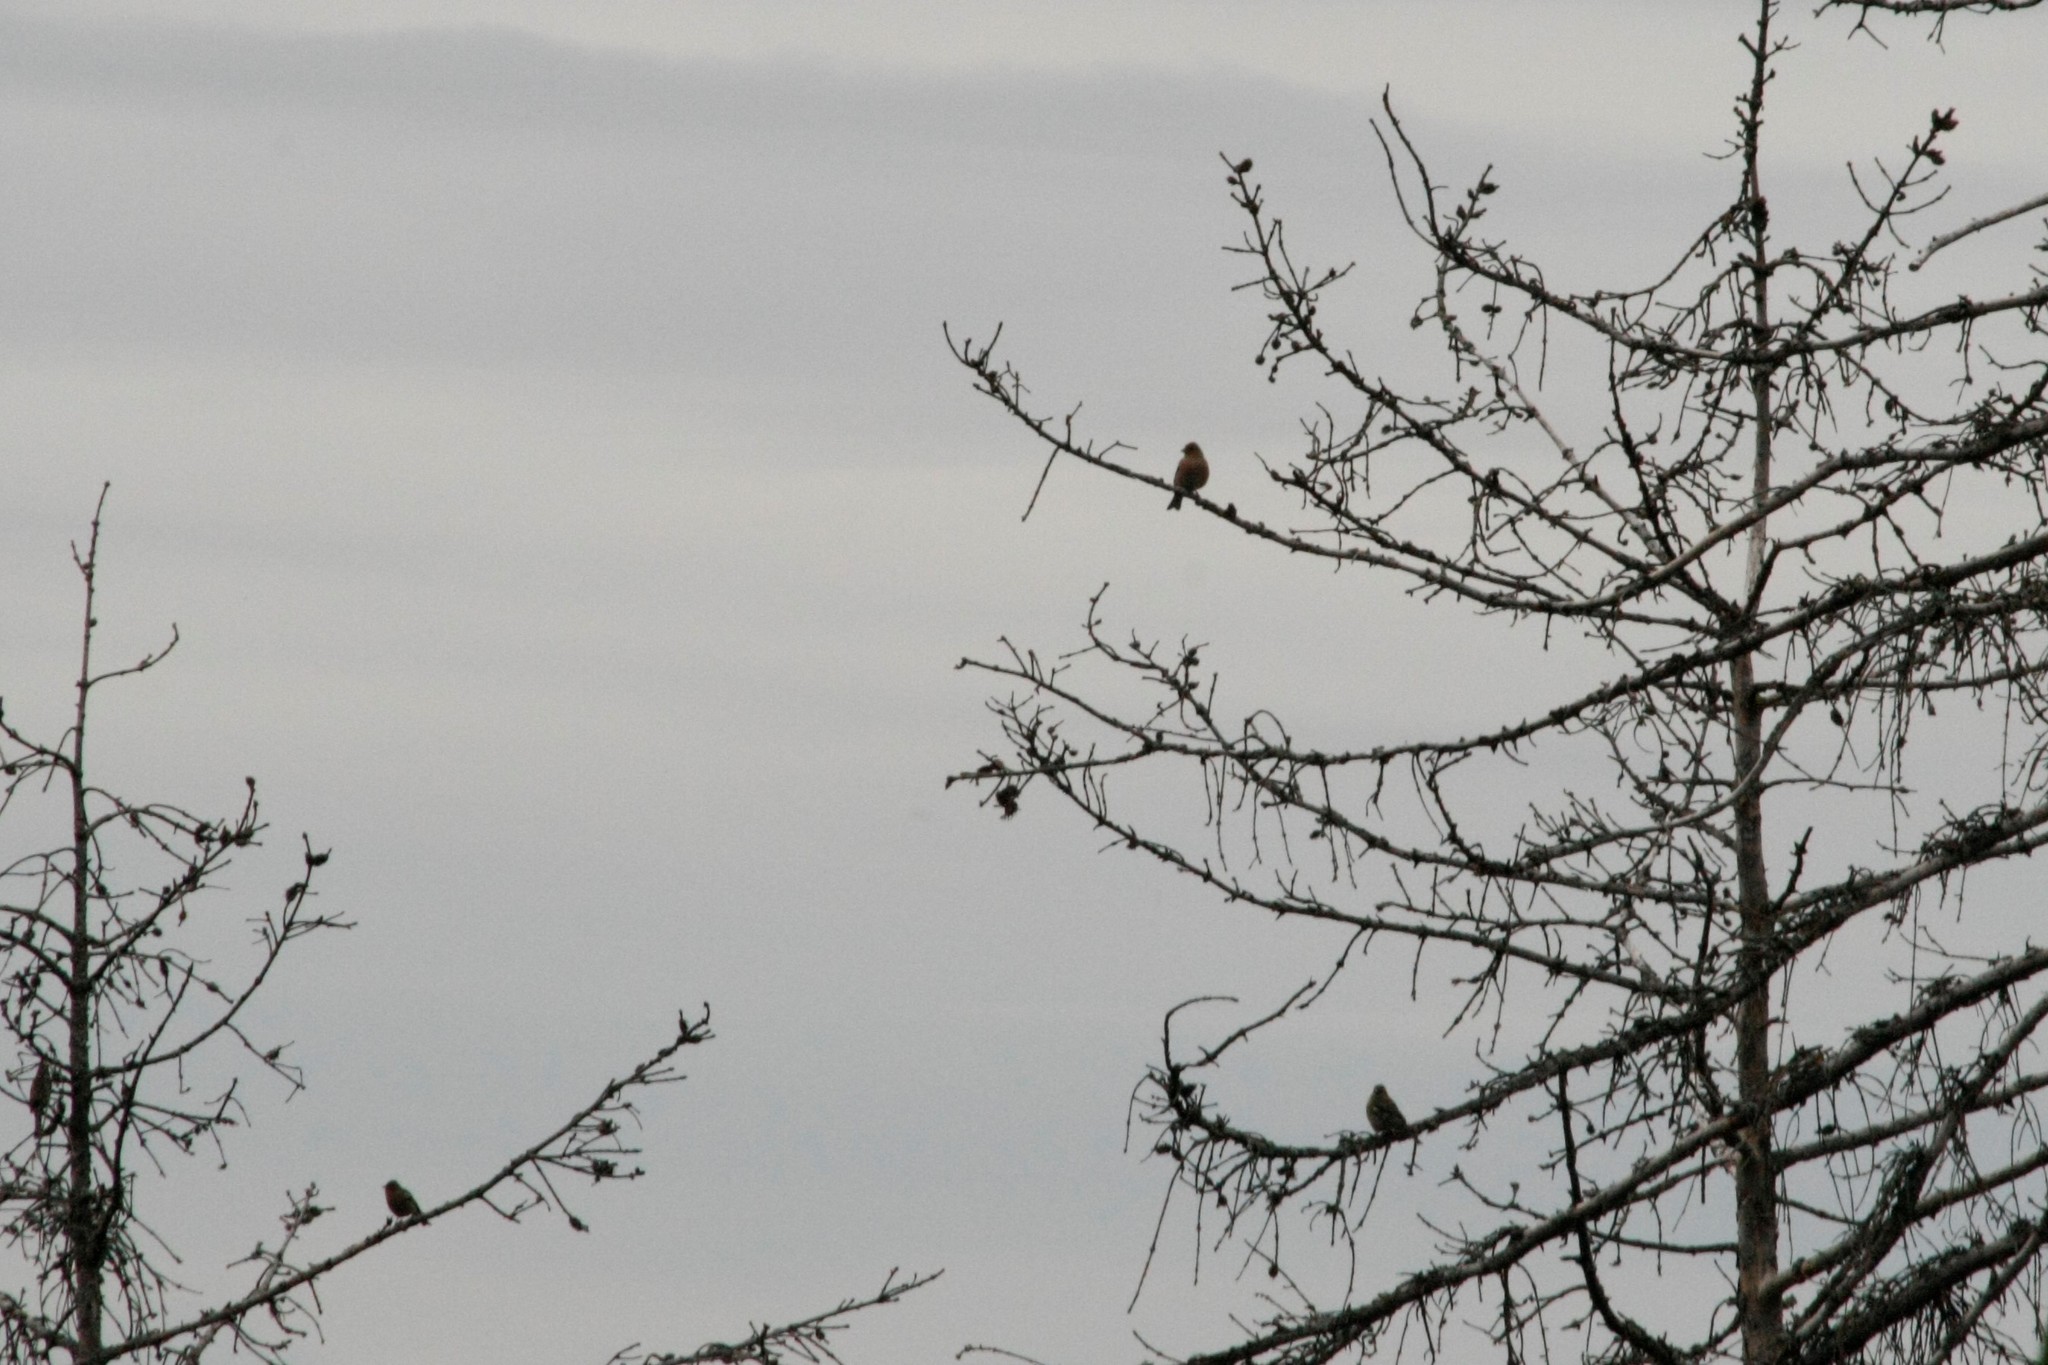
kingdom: Animalia
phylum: Chordata
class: Aves
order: Passeriformes
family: Fringillidae
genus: Fringilla
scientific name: Fringilla coelebs
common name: Common chaffinch
